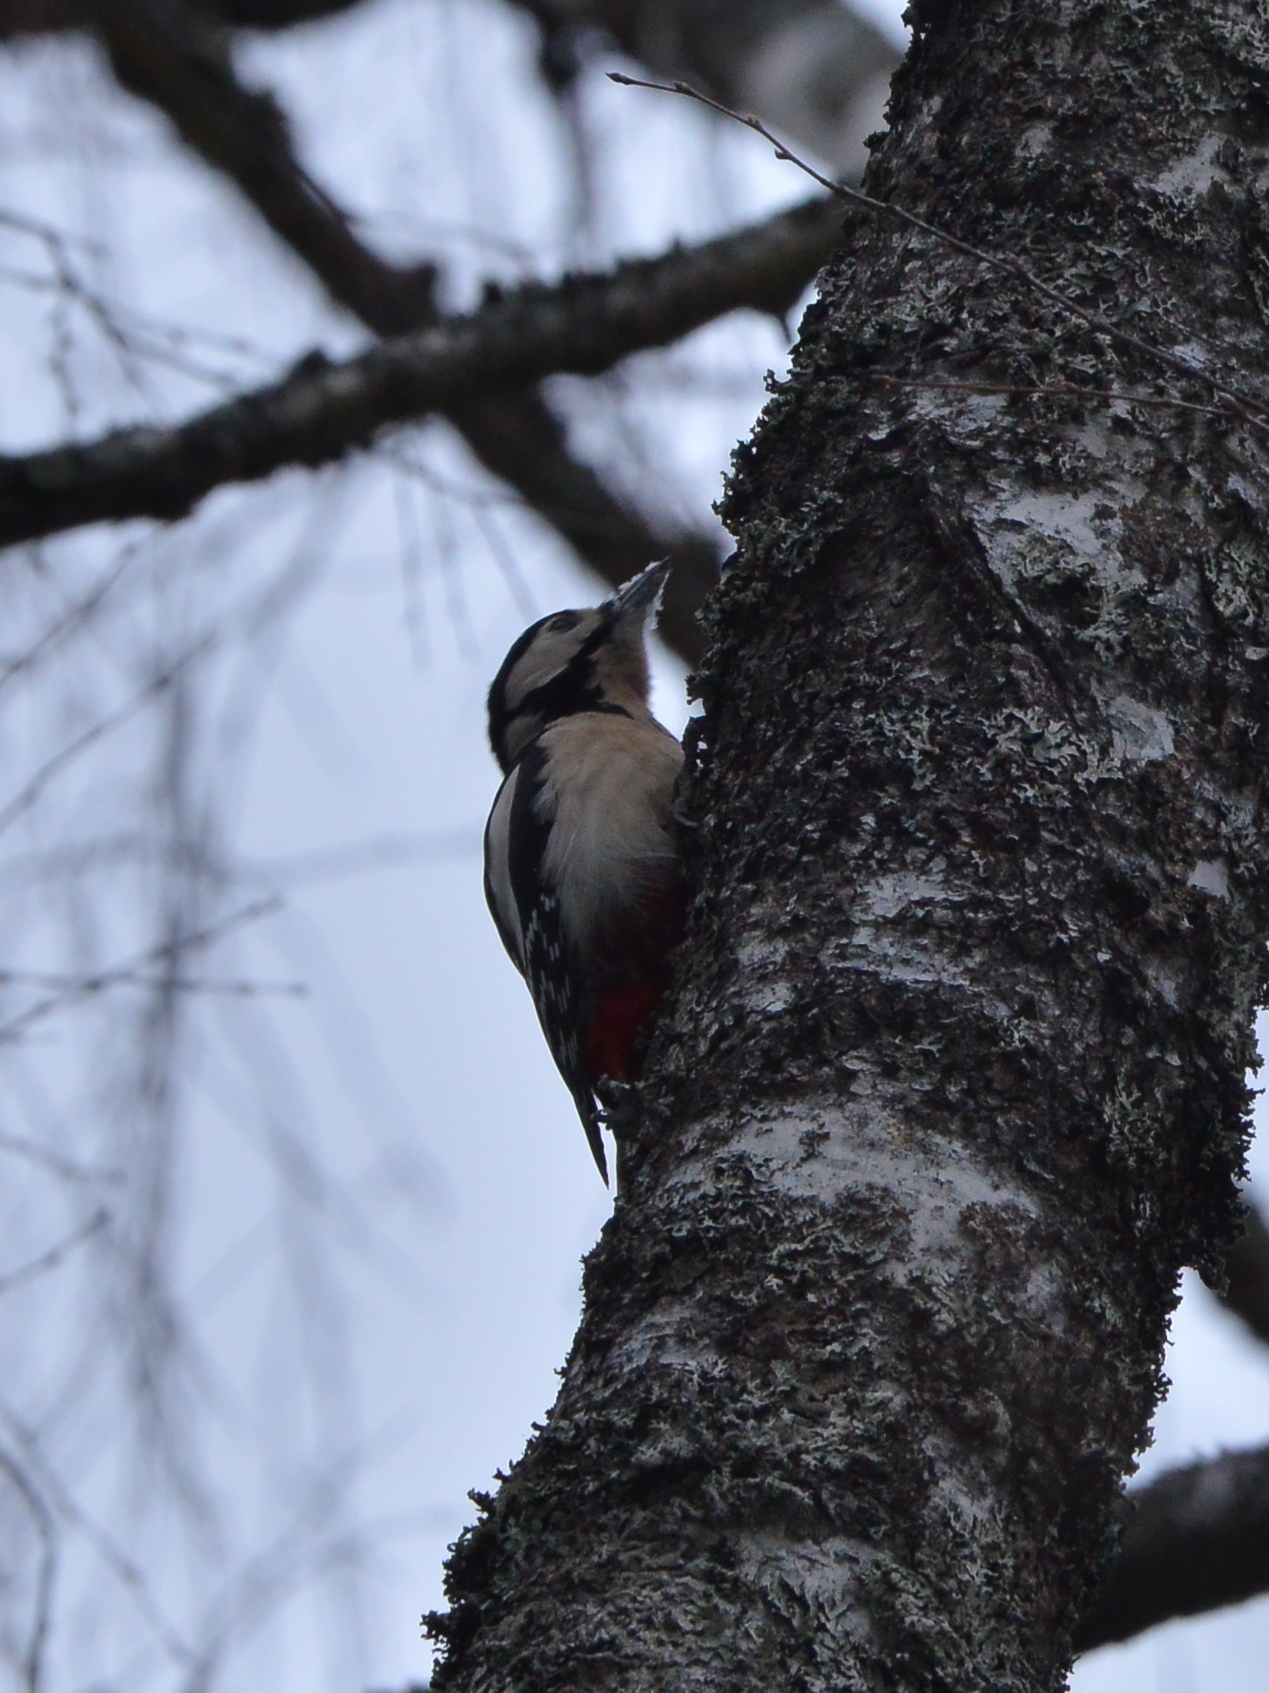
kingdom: Animalia
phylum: Chordata
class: Aves
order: Piciformes
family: Picidae
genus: Dendrocopos
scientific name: Dendrocopos major
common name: Great spotted woodpecker
